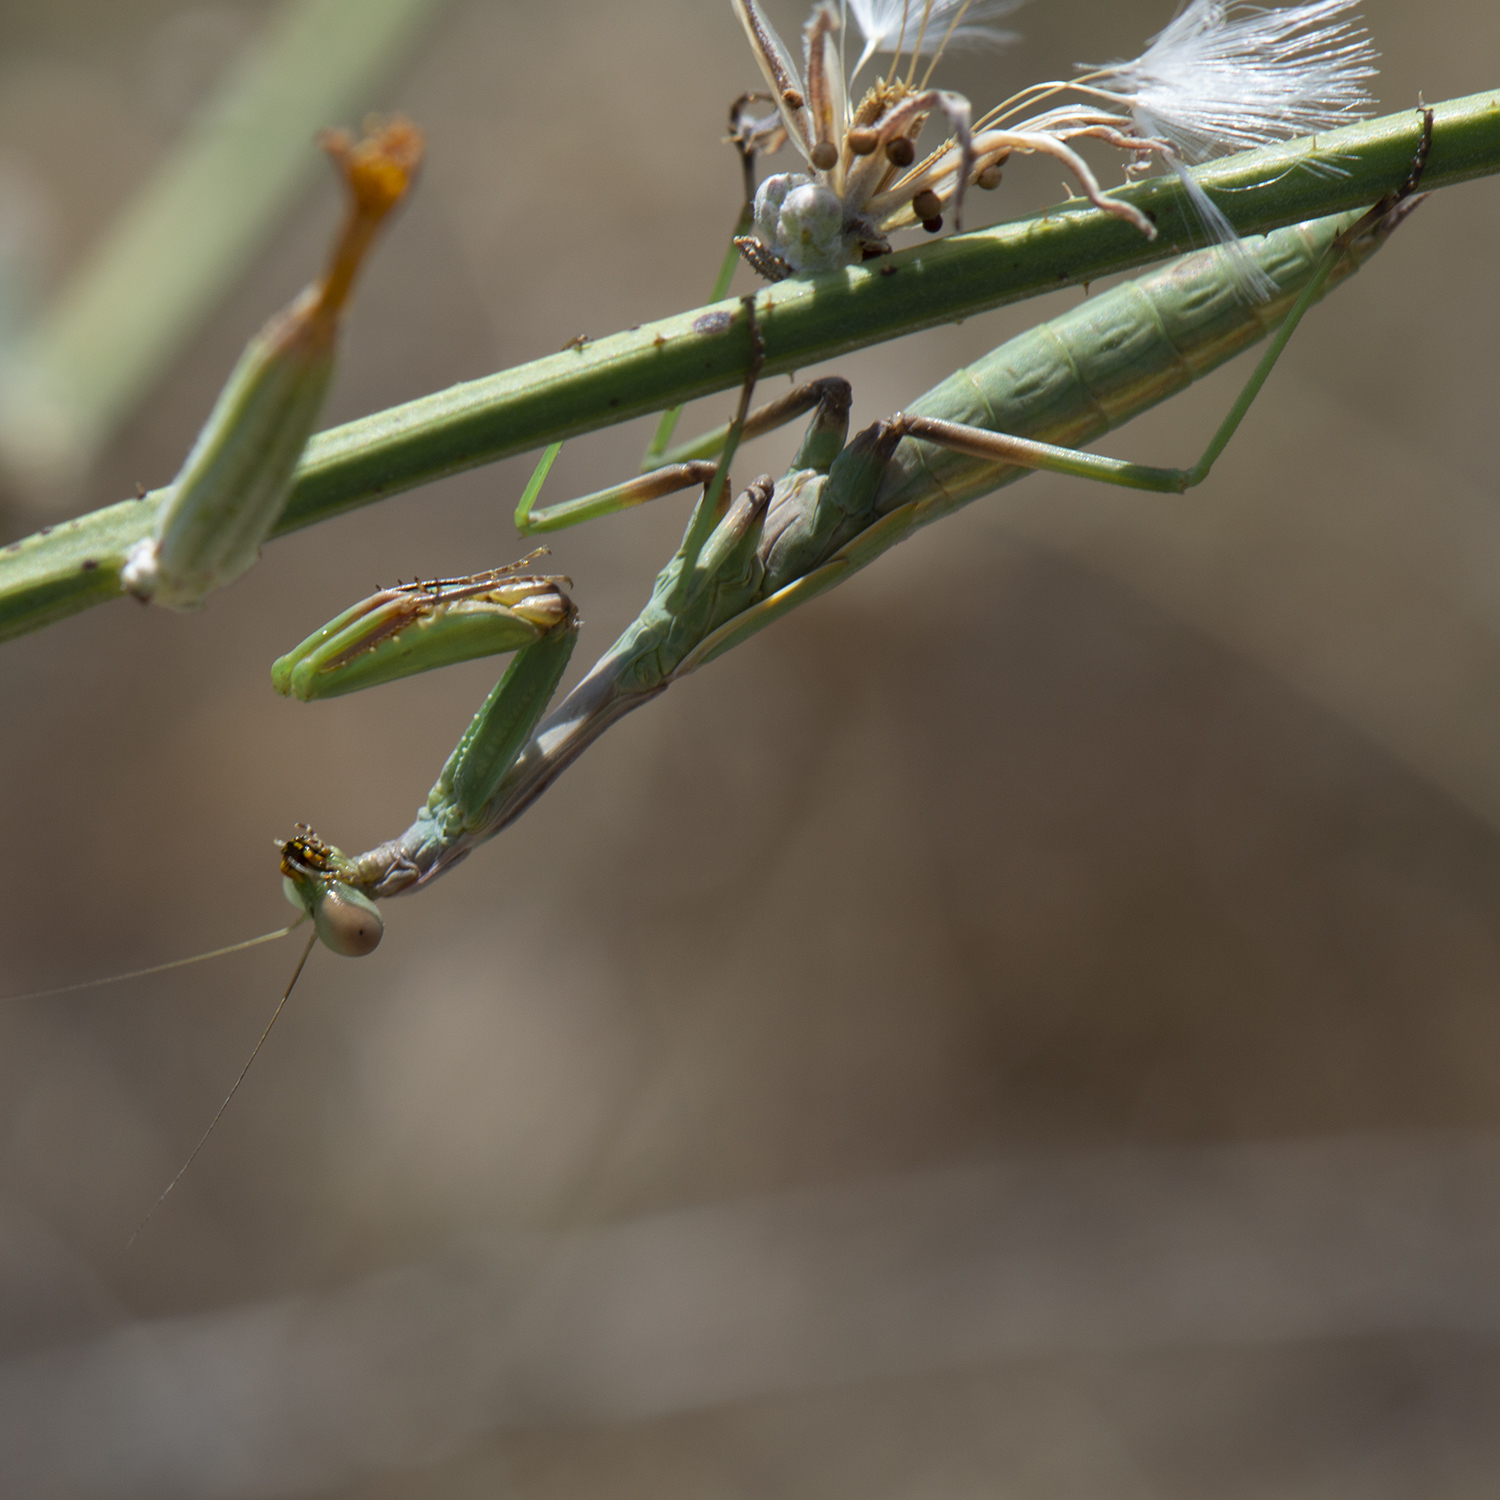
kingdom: Animalia
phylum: Arthropoda
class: Insecta
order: Mantodea
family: Eremiaphilidae
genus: Iris
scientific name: Iris oratoria
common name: Mediterranean mantis
